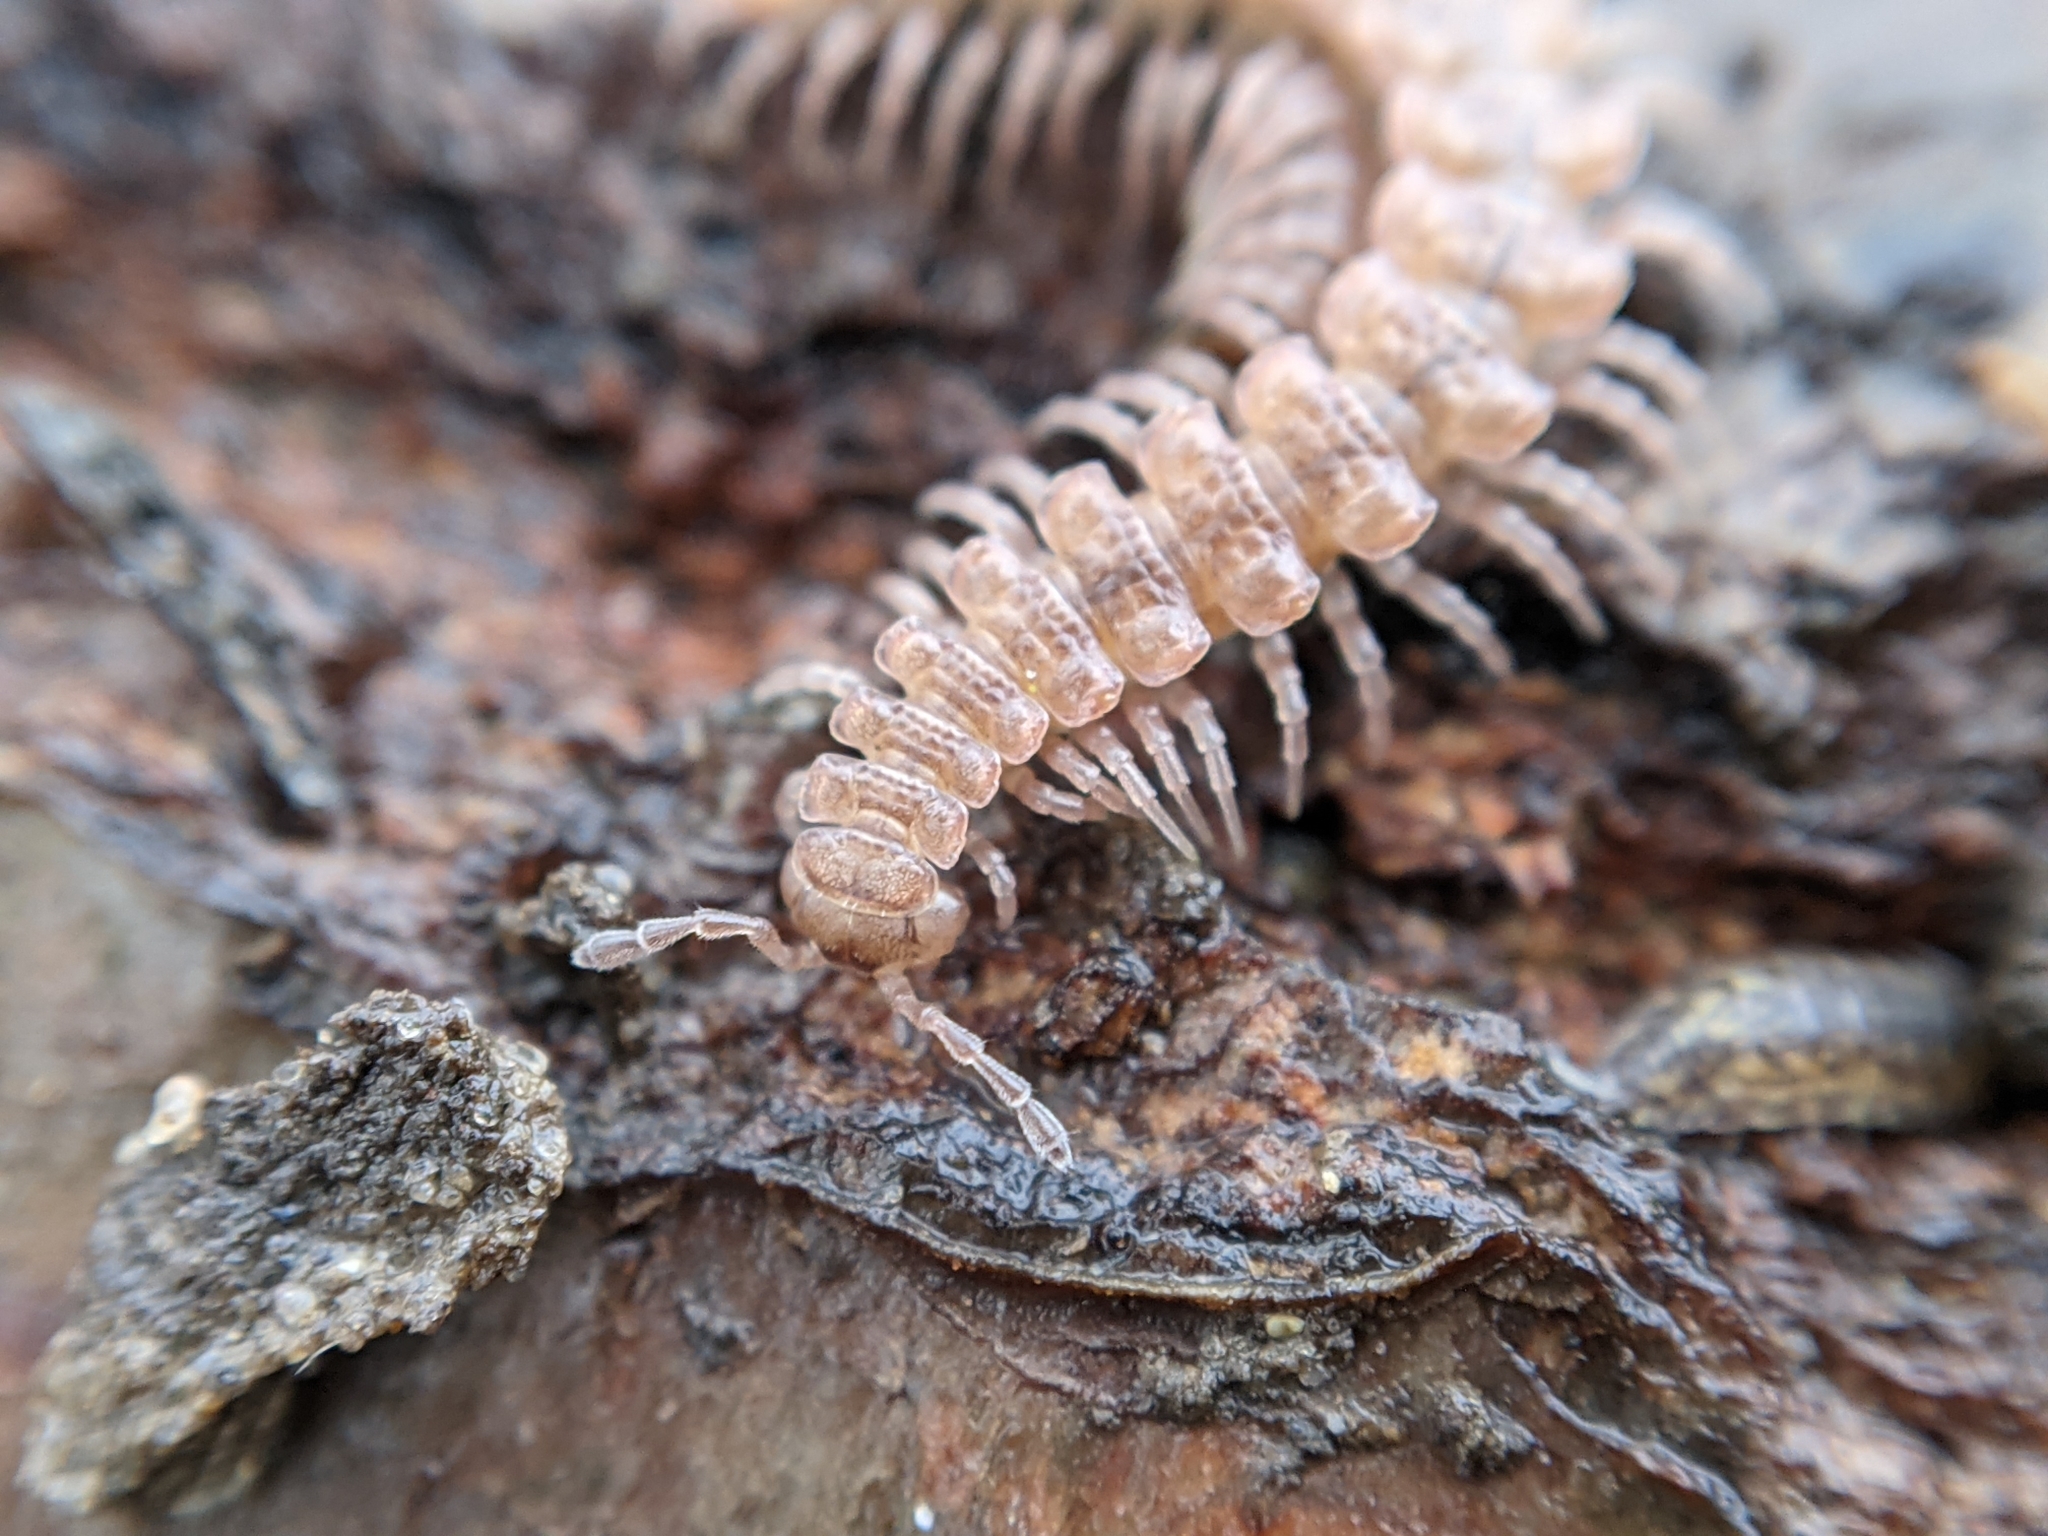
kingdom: Animalia
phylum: Arthropoda
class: Diplopoda
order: Polydesmida
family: Polydesmidae
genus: Polydesmus
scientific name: Polydesmus angustus
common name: Flat millipede
